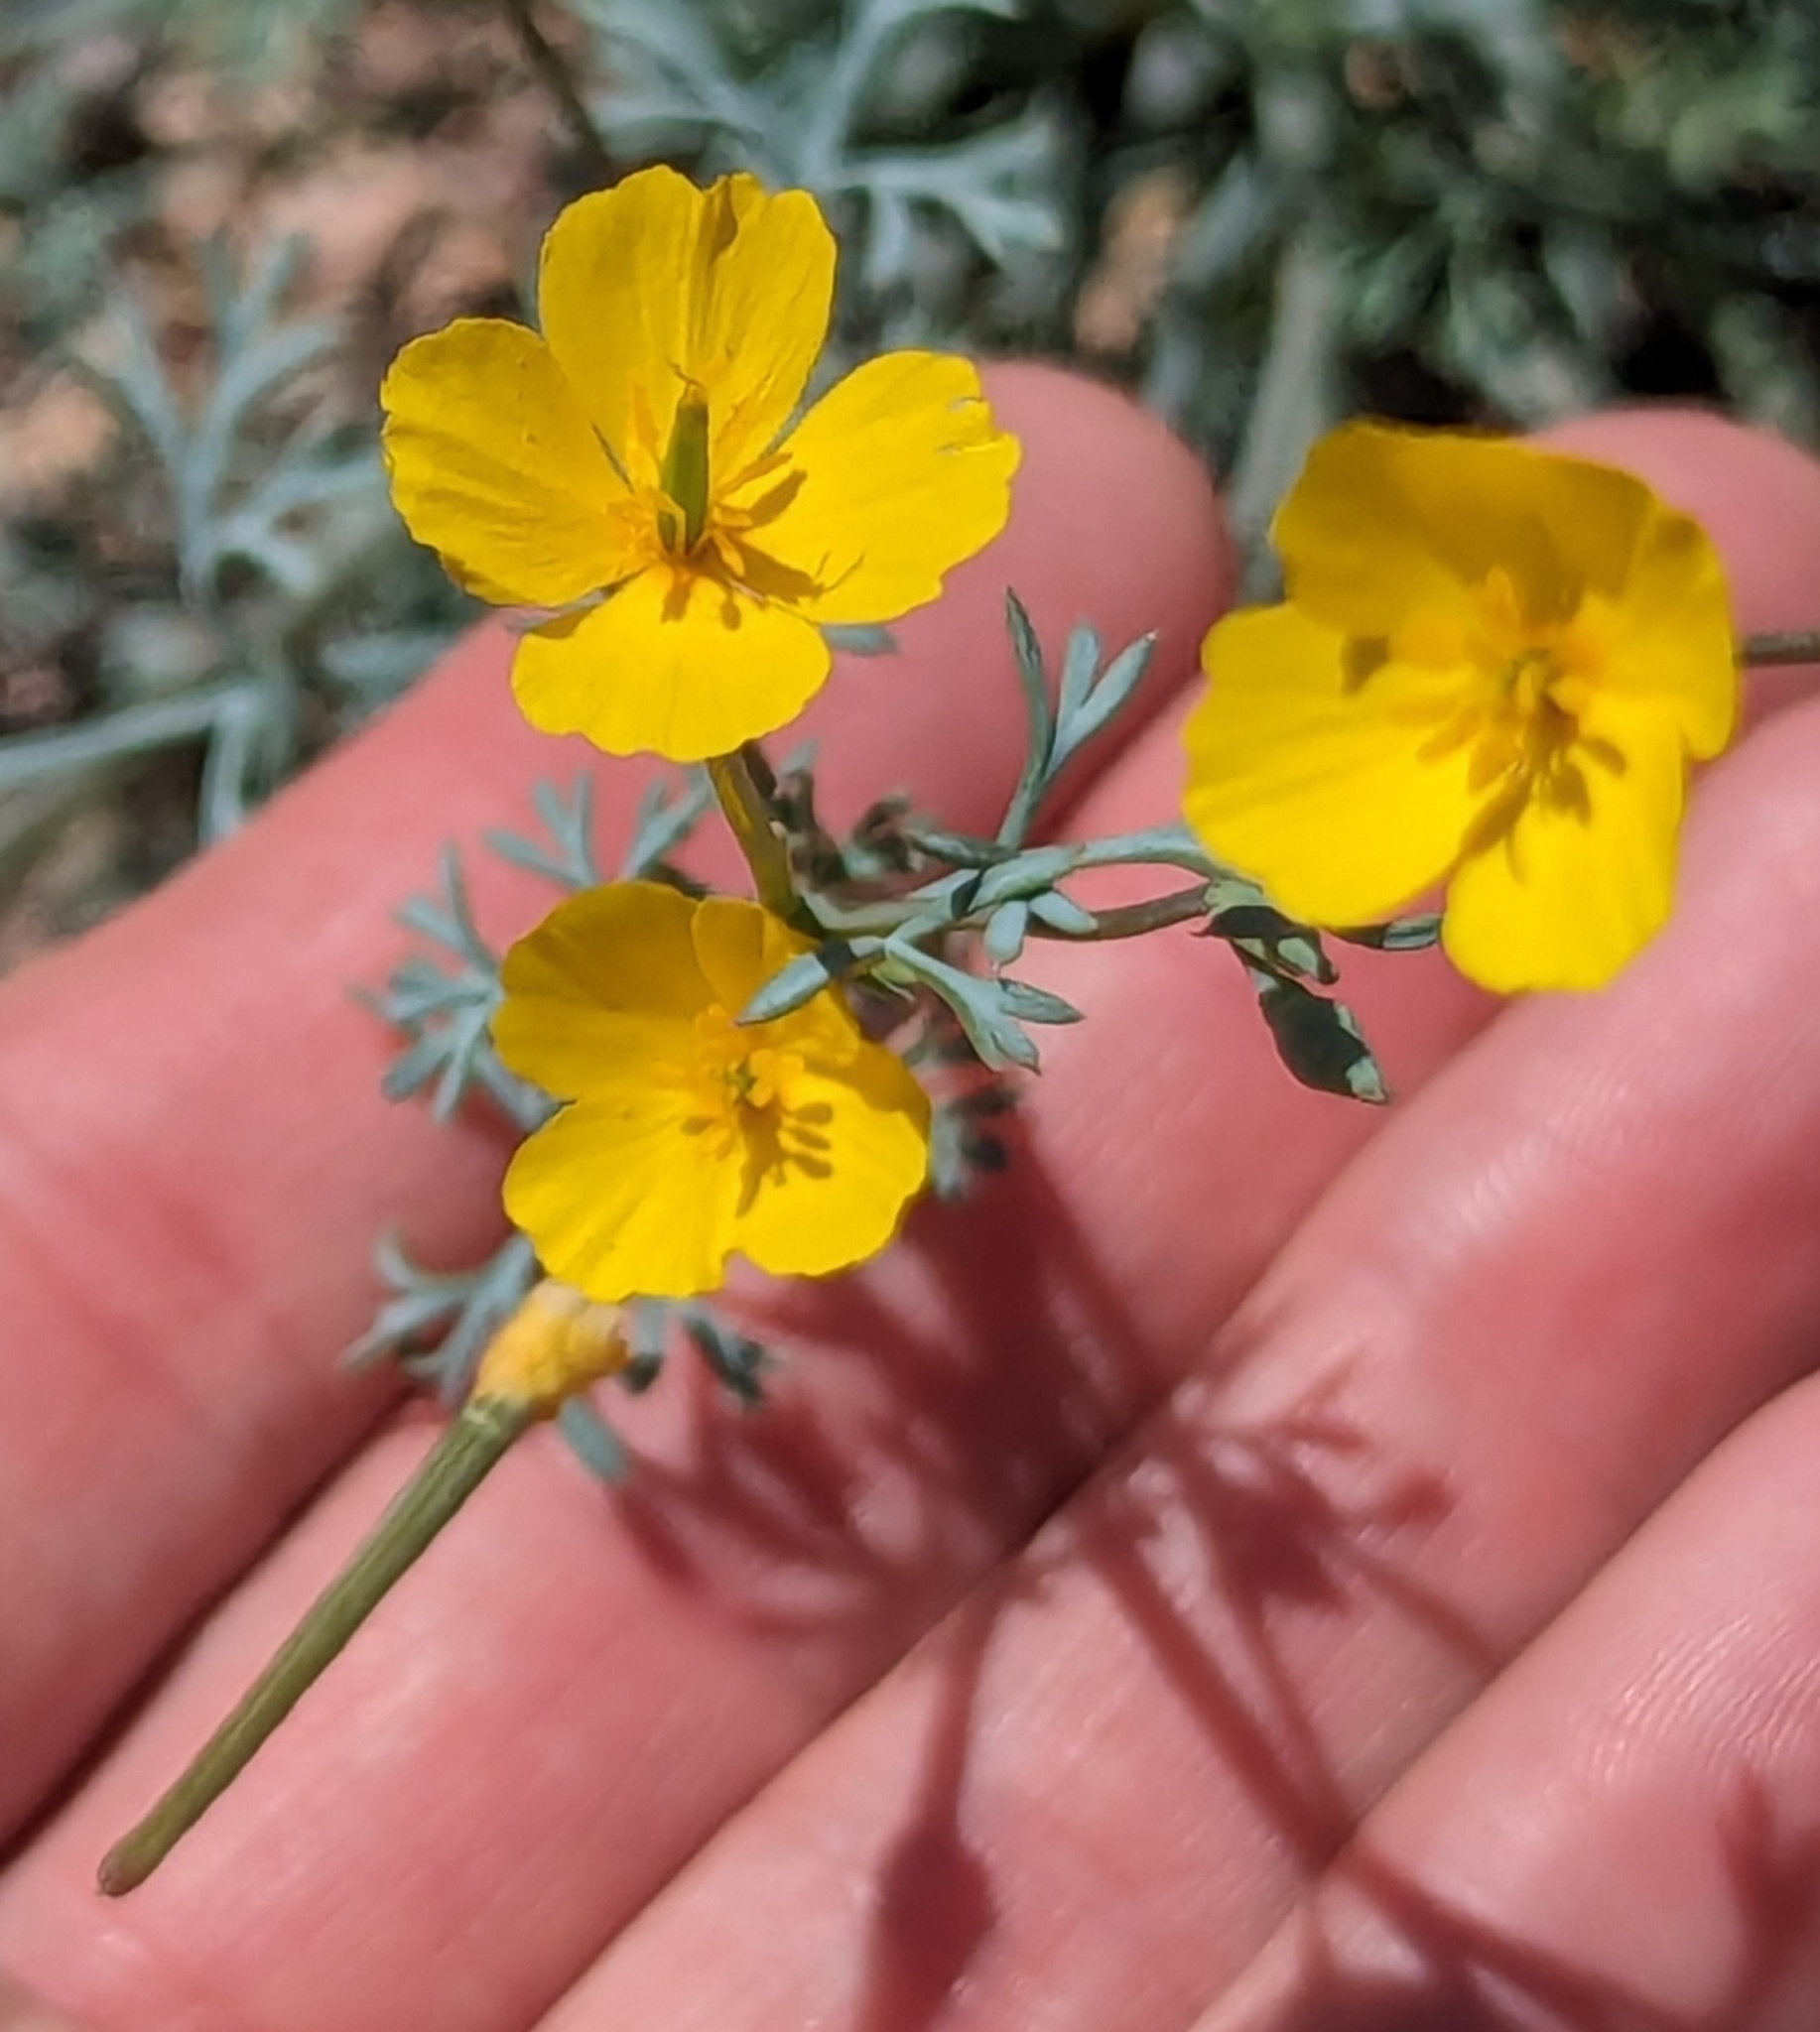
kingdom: Plantae
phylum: Tracheophyta
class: Magnoliopsida
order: Ranunculales
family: Papaveraceae
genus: Eschscholzia
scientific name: Eschscholzia minutiflora
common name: Small-flower california-poppy
